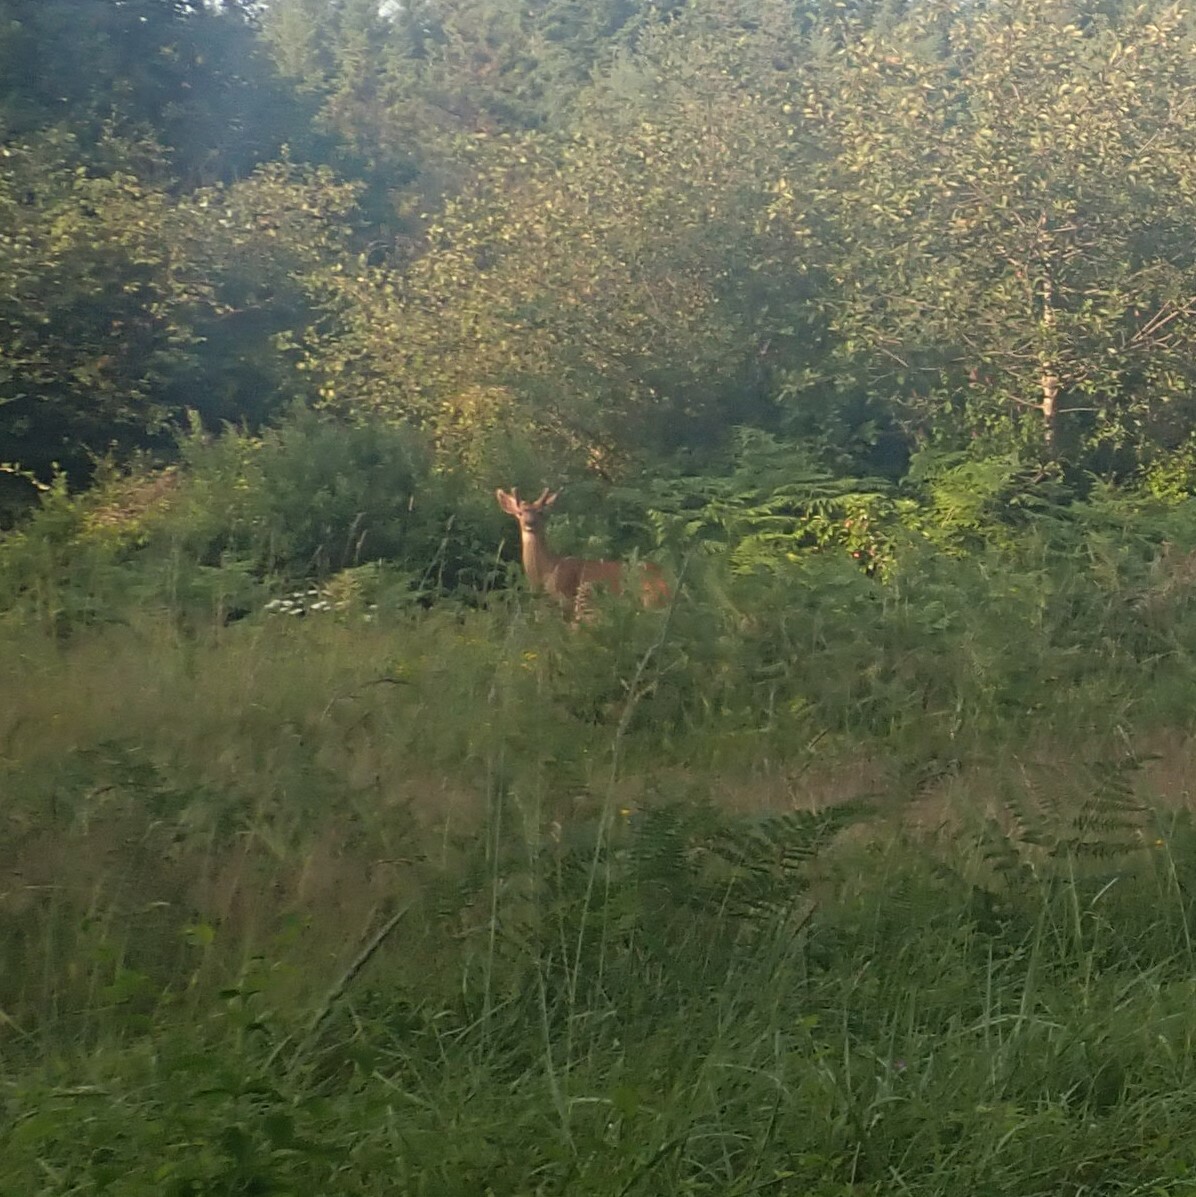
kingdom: Animalia
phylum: Chordata
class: Mammalia
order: Artiodactyla
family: Cervidae
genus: Odocoileus
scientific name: Odocoileus hemionus
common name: Mule deer
